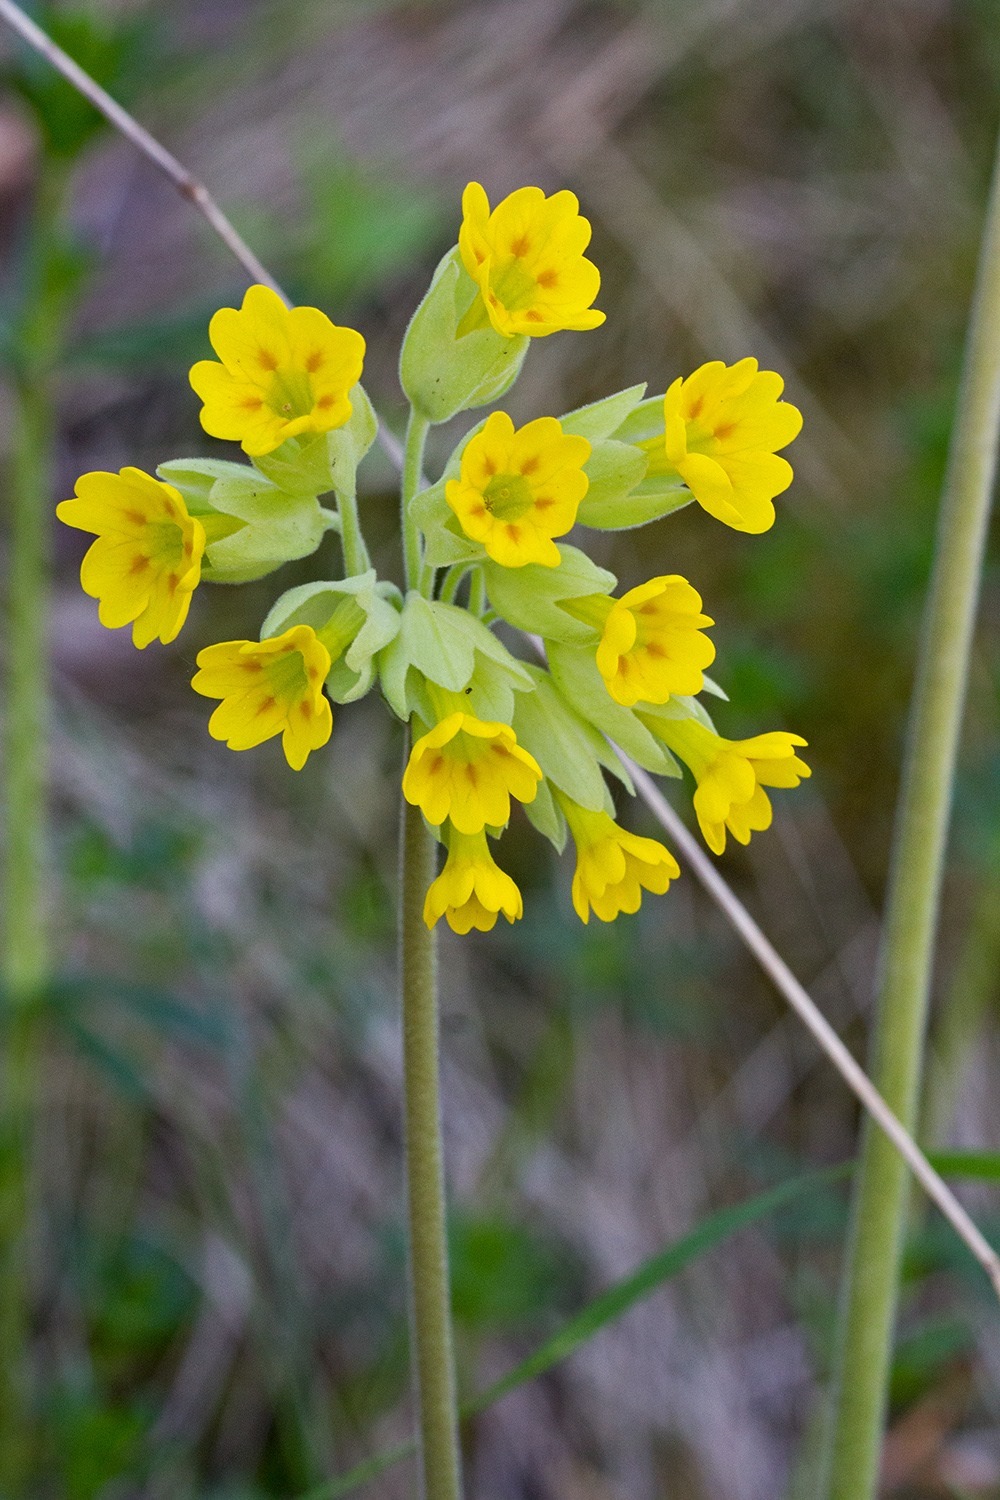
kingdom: Plantae
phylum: Tracheophyta
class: Magnoliopsida
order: Ericales
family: Primulaceae
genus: Primula
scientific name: Primula veris
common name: Cowslip
